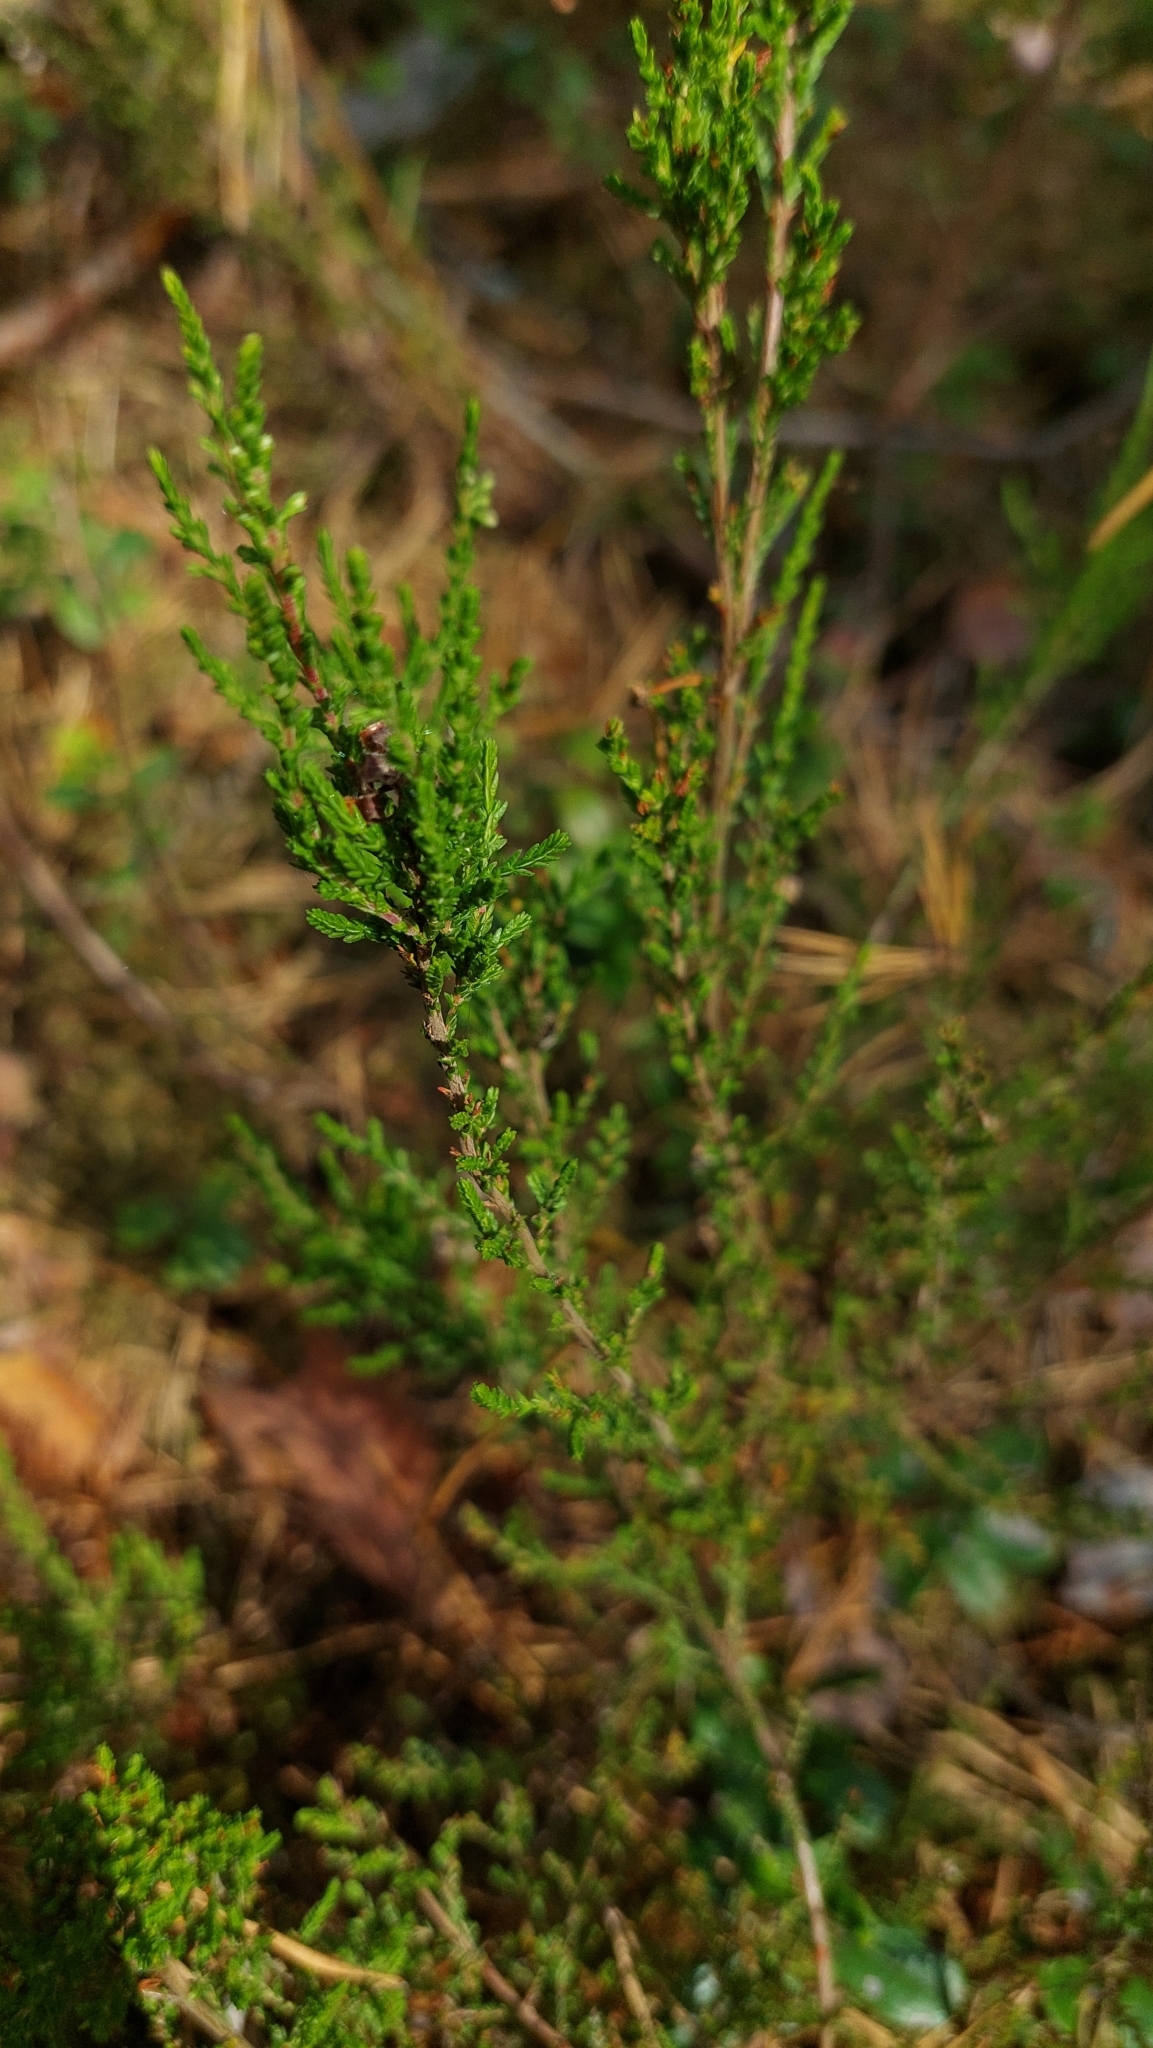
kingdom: Plantae
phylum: Tracheophyta
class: Magnoliopsida
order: Ericales
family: Ericaceae
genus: Calluna
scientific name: Calluna vulgaris
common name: Heather
